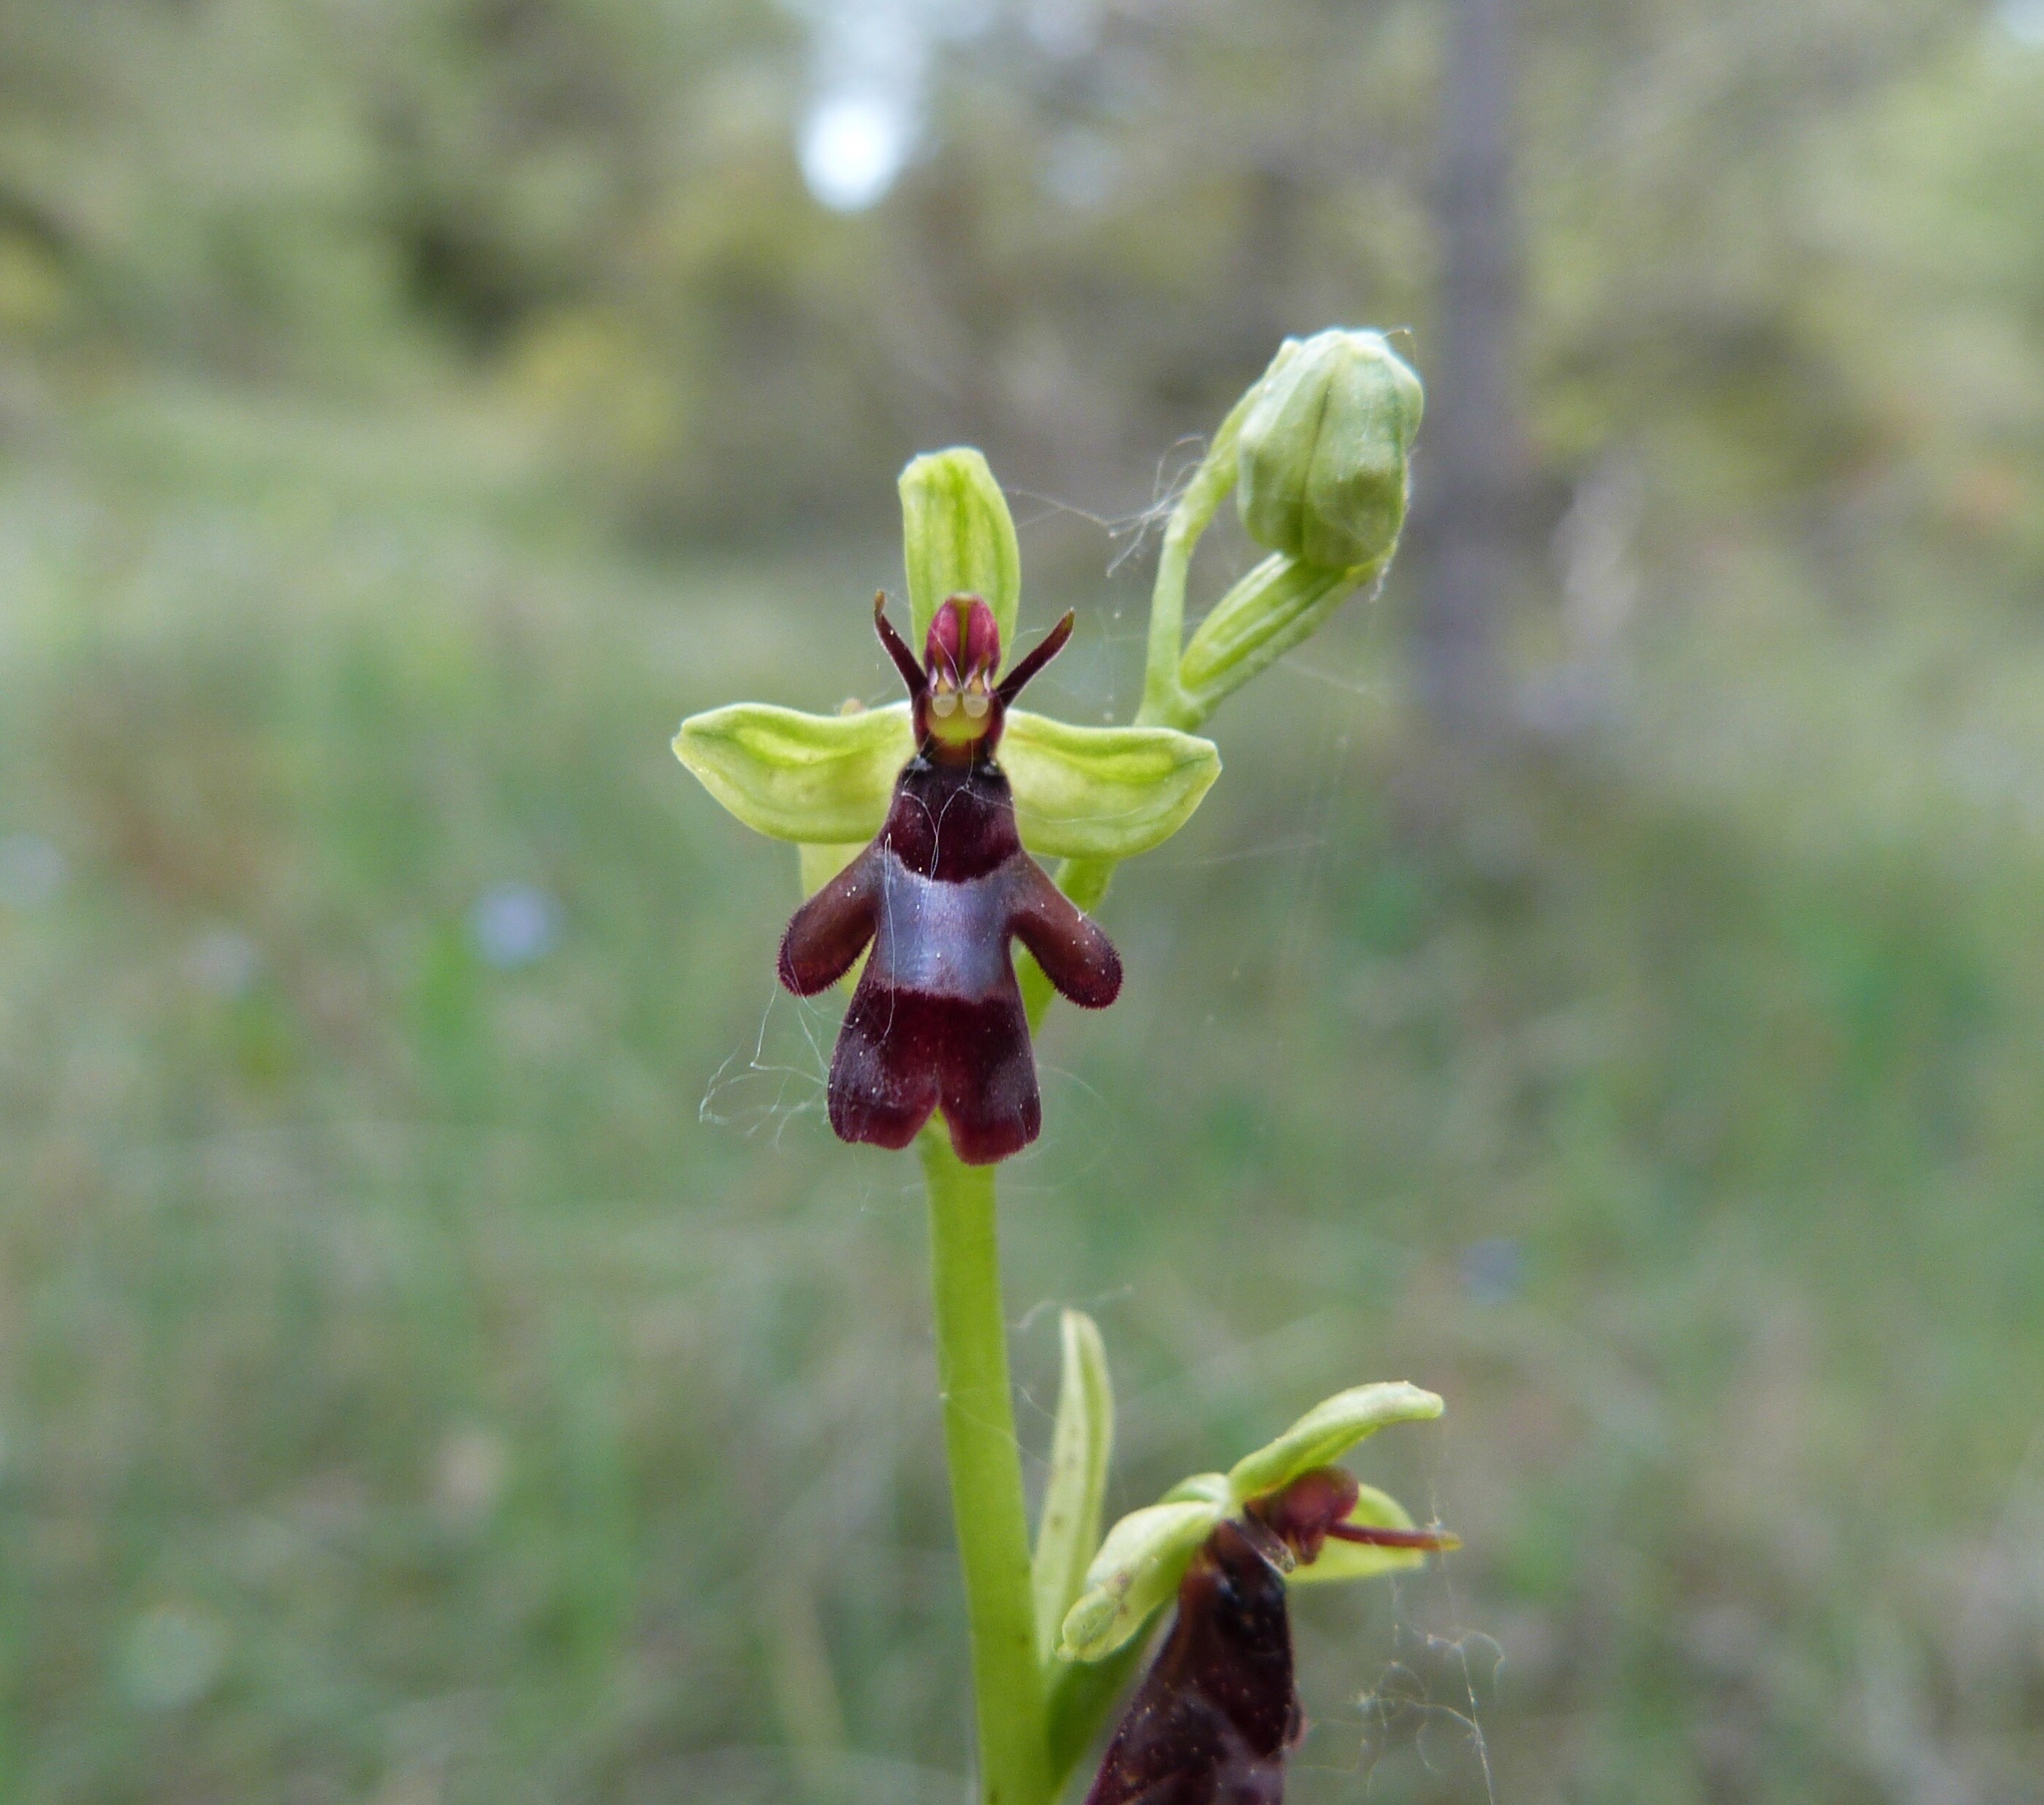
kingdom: Plantae
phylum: Tracheophyta
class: Liliopsida
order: Asparagales
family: Orchidaceae
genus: Ophrys
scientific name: Ophrys insectifera
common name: Fly orchid
